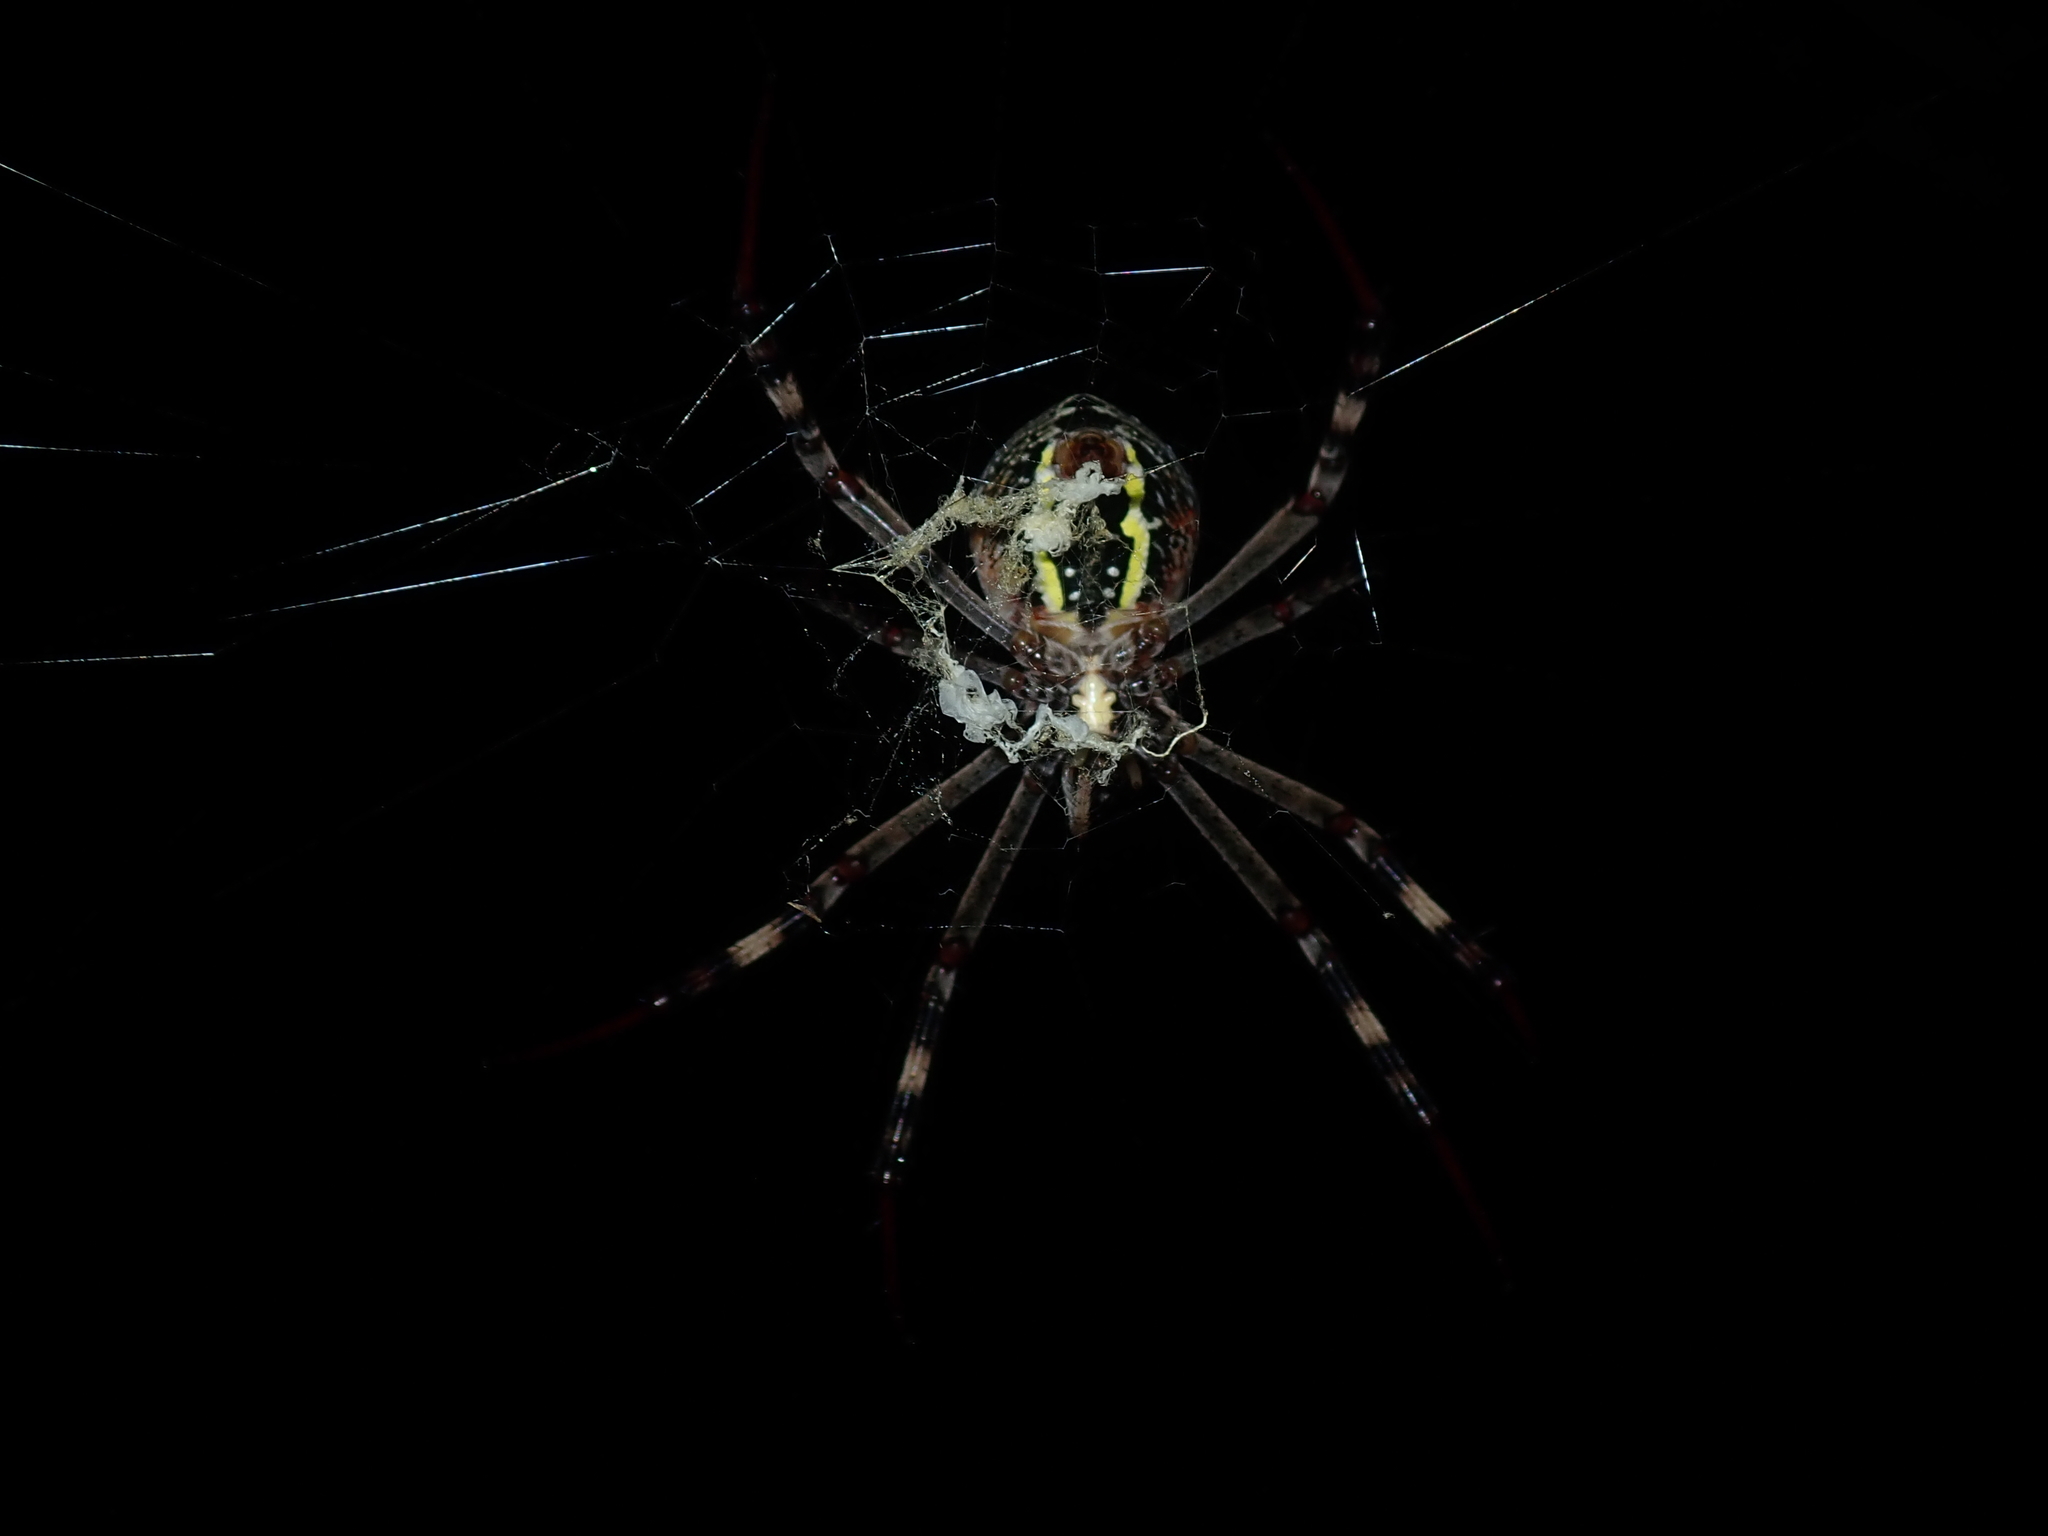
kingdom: Animalia
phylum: Arthropoda
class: Arachnida
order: Araneae
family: Araneidae
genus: Argiope
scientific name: Argiope keyserlingi
